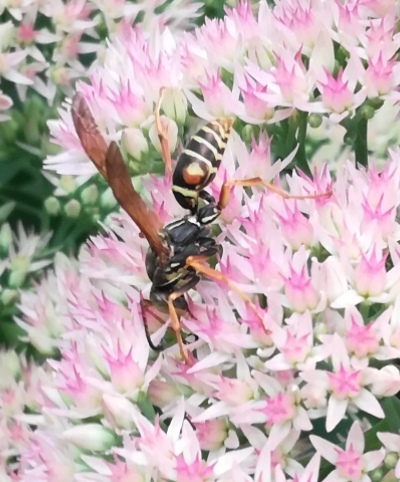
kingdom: Animalia
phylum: Arthropoda
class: Insecta
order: Hymenoptera
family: Eumenidae
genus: Polistes
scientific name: Polistes fuscatus
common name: Dark paper wasp
